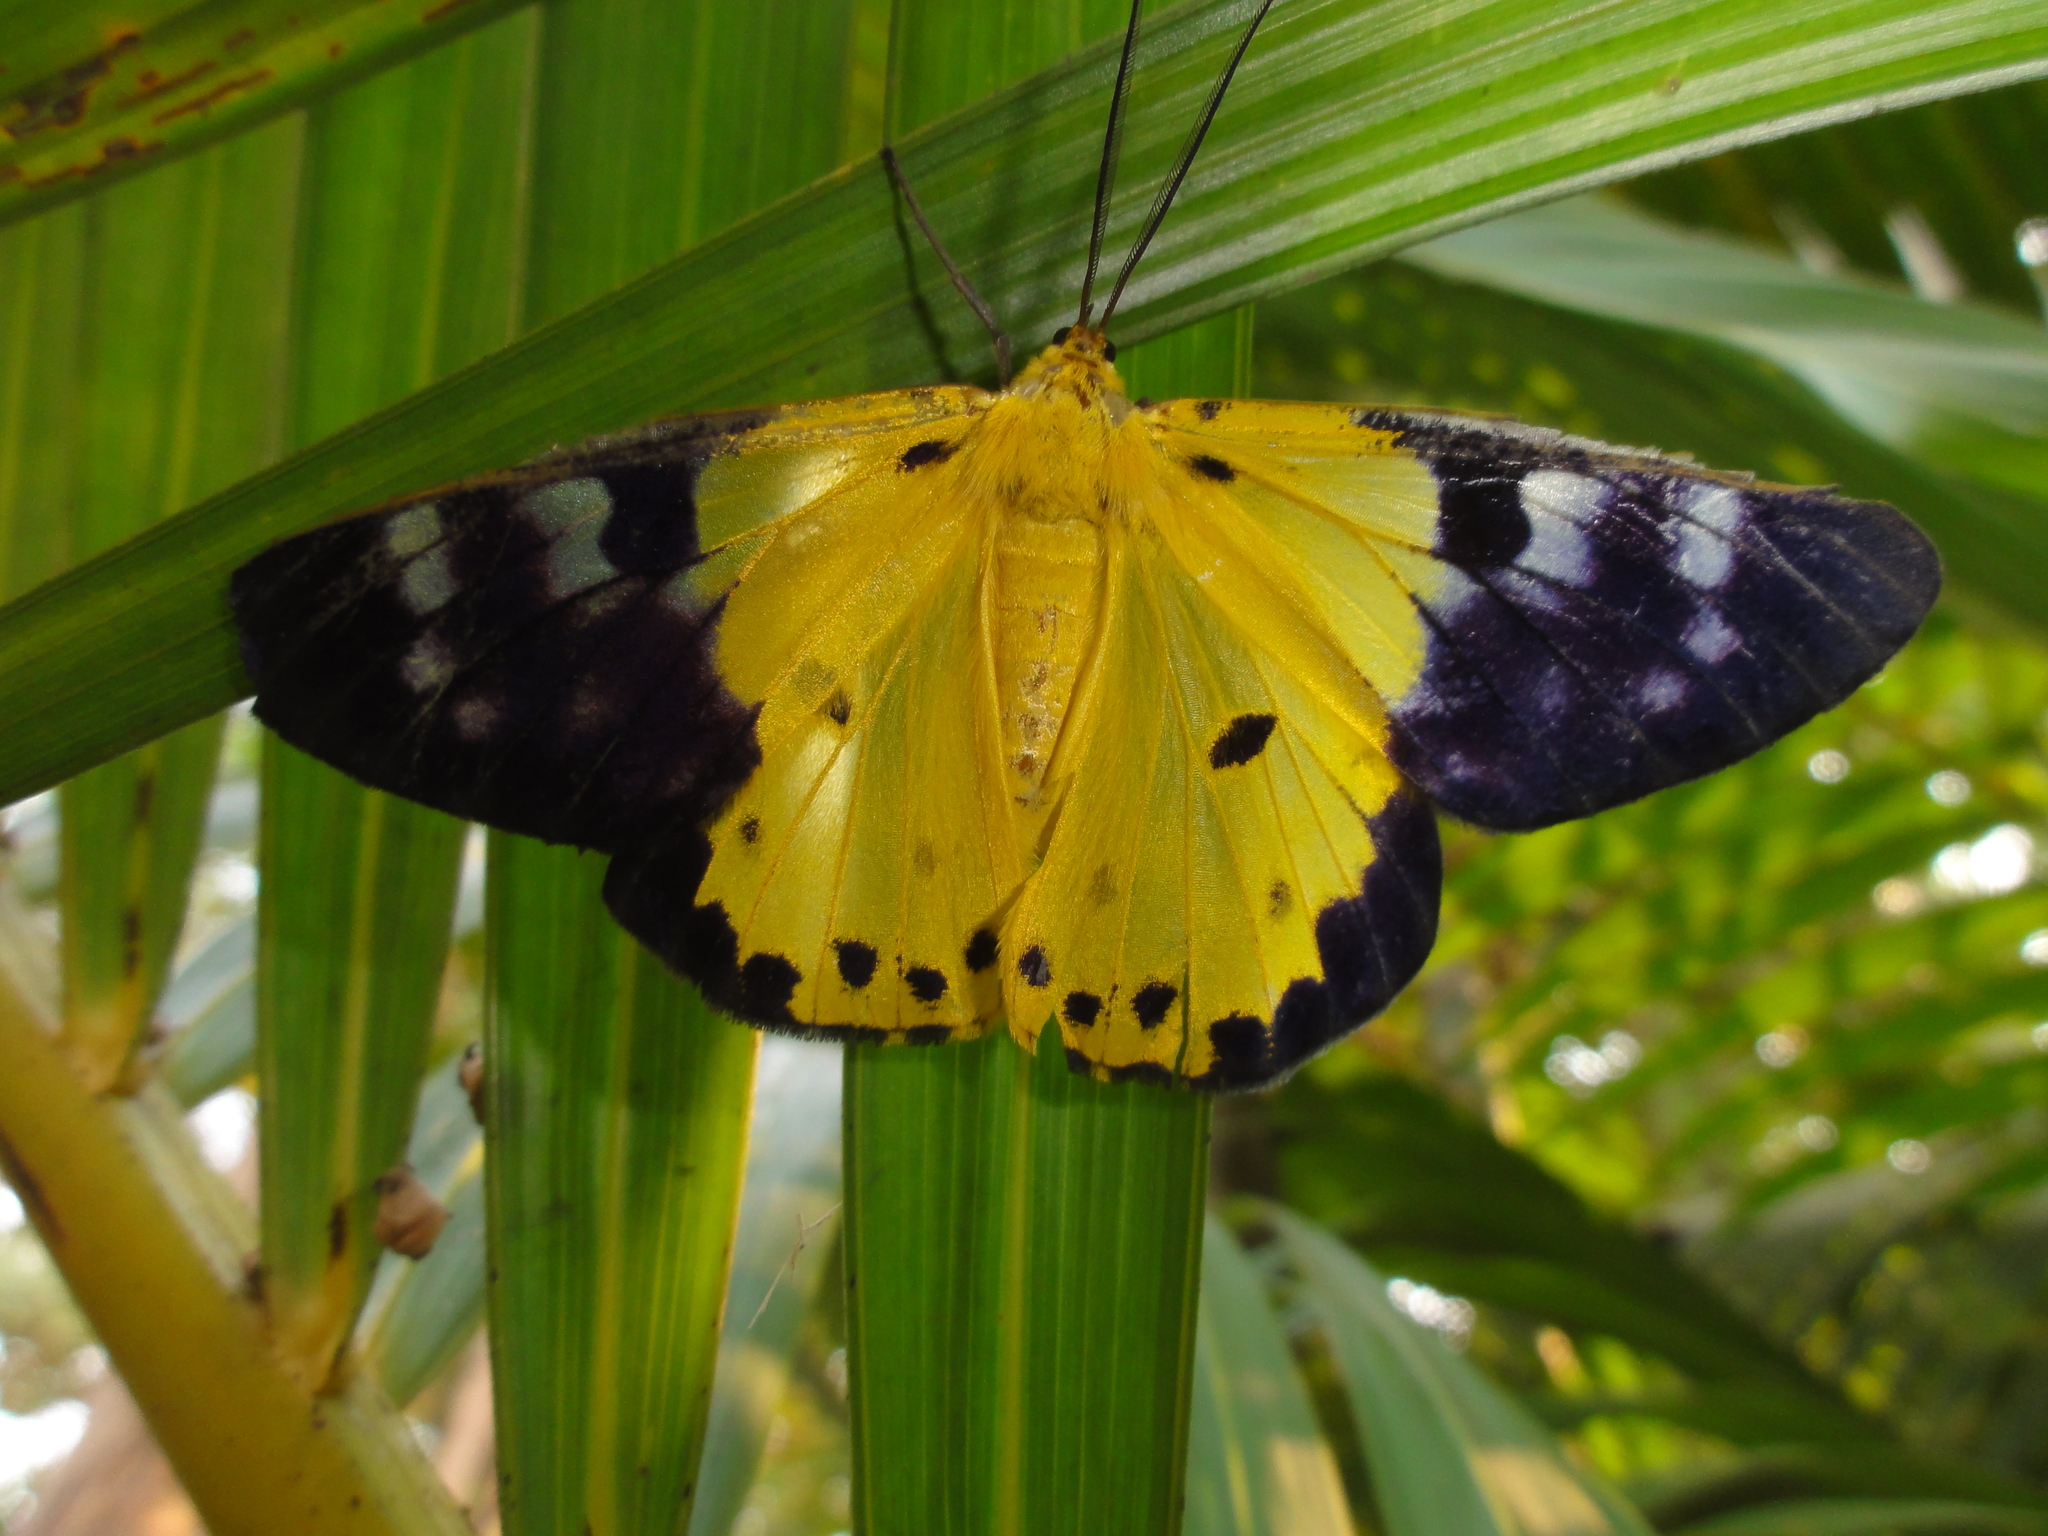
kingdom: Animalia
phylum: Arthropoda
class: Insecta
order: Lepidoptera
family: Geometridae
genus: Dysphania
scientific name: Dysphania sagana
